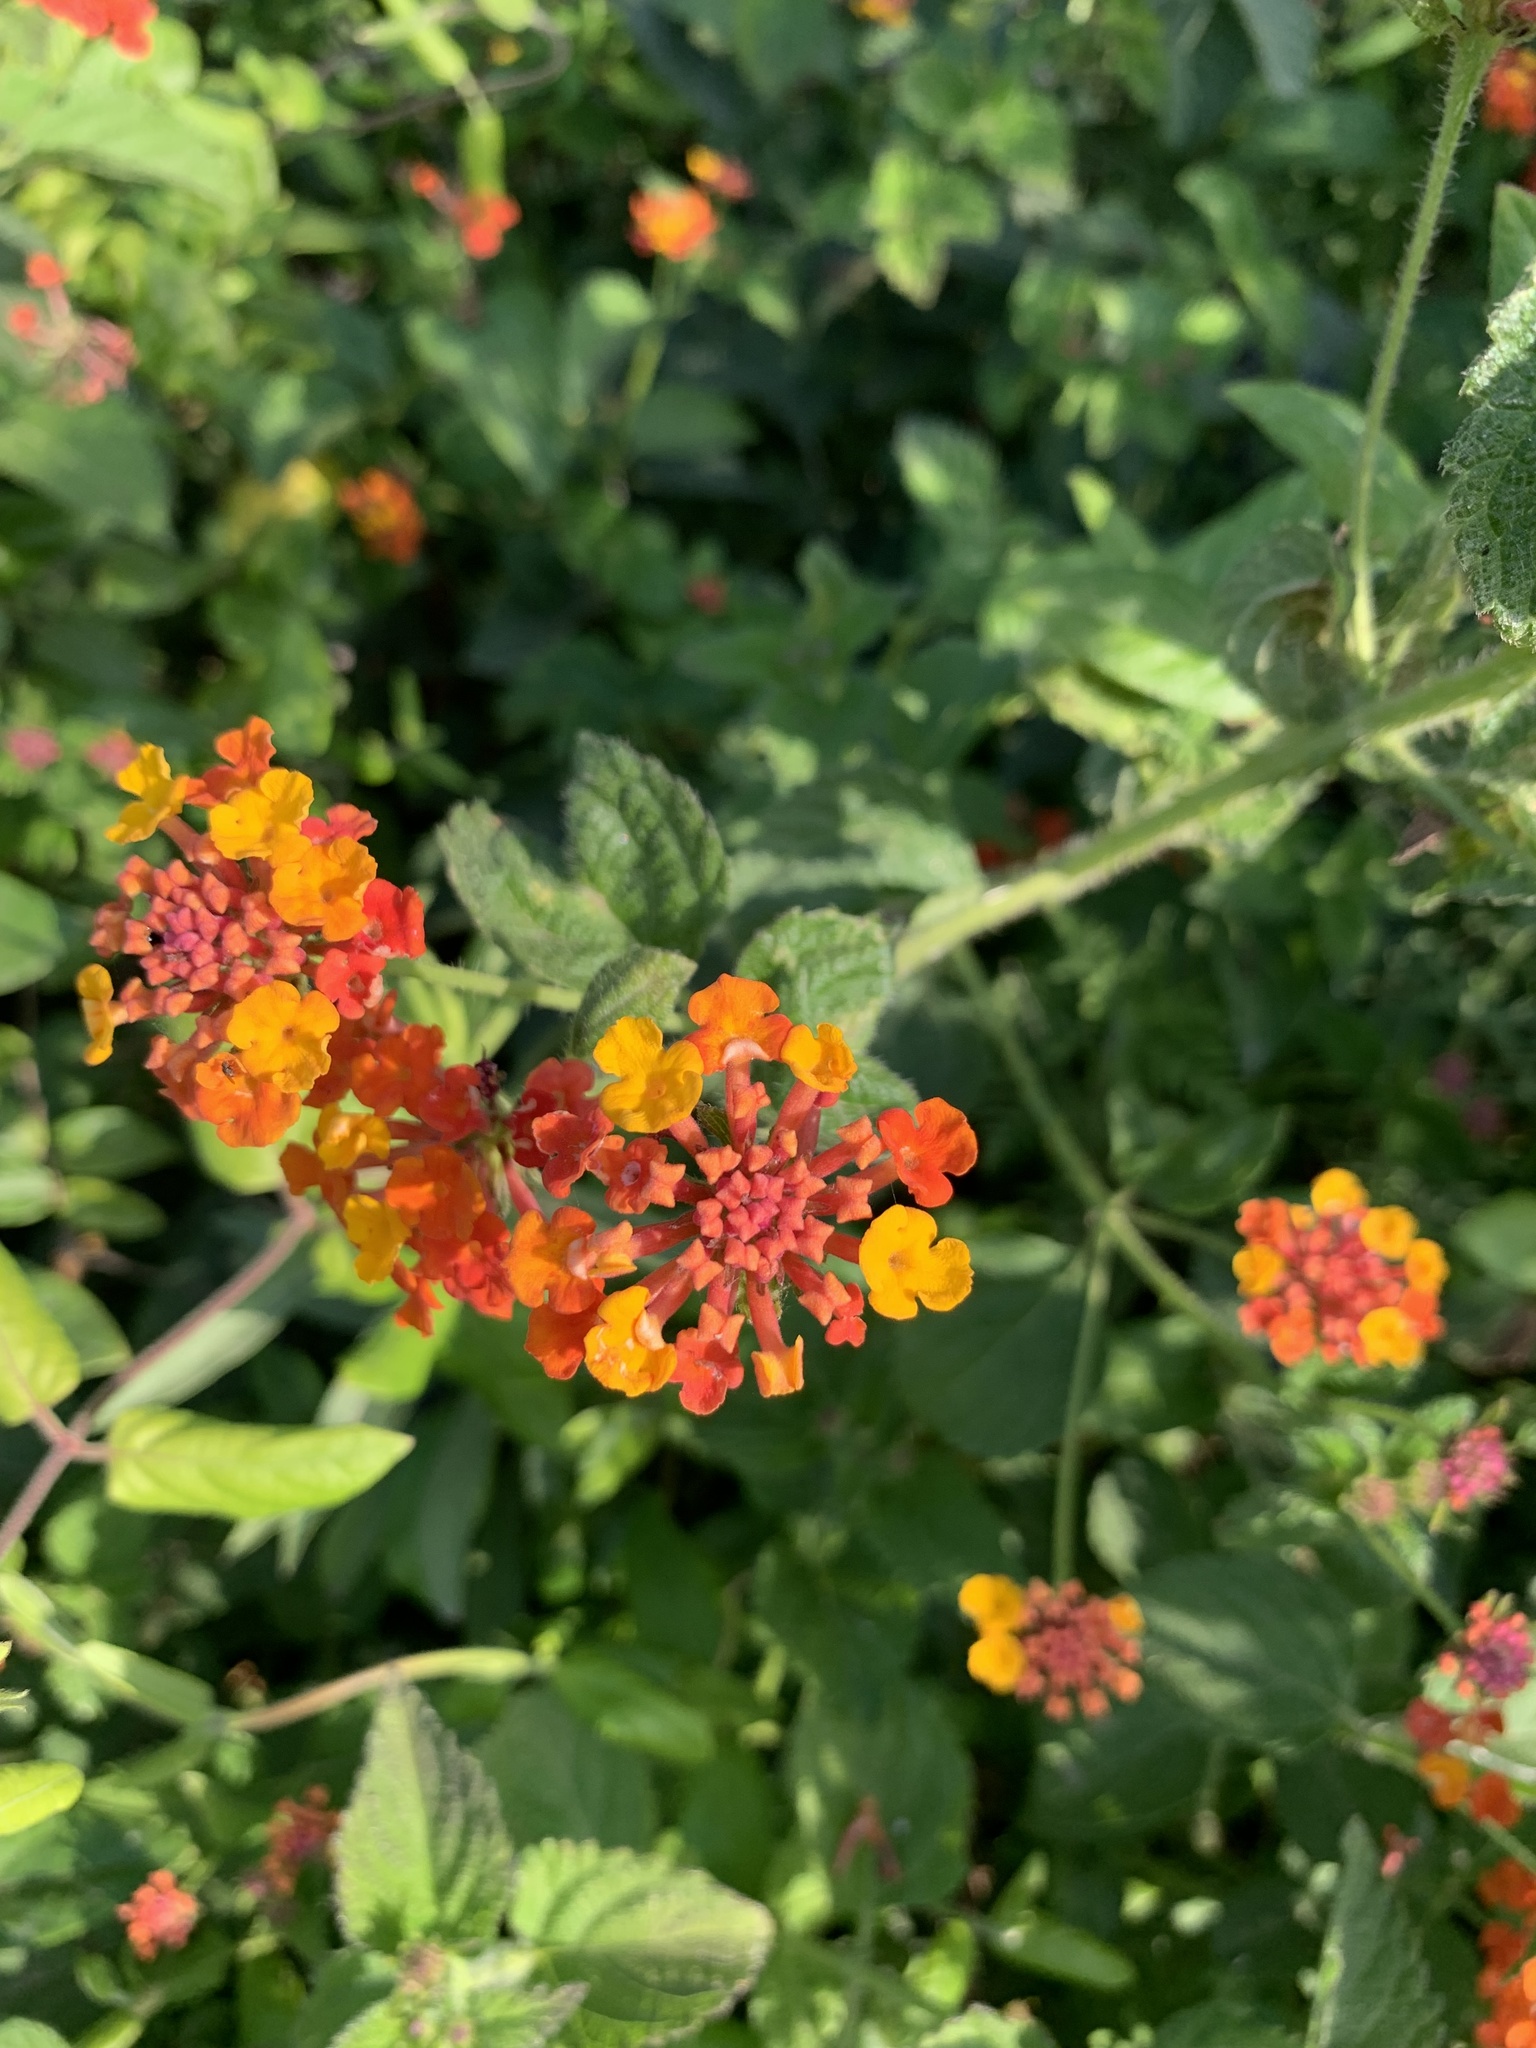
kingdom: Plantae
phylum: Tracheophyta
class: Magnoliopsida
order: Lamiales
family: Verbenaceae
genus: Lantana
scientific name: Lantana camara
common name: Lantana
